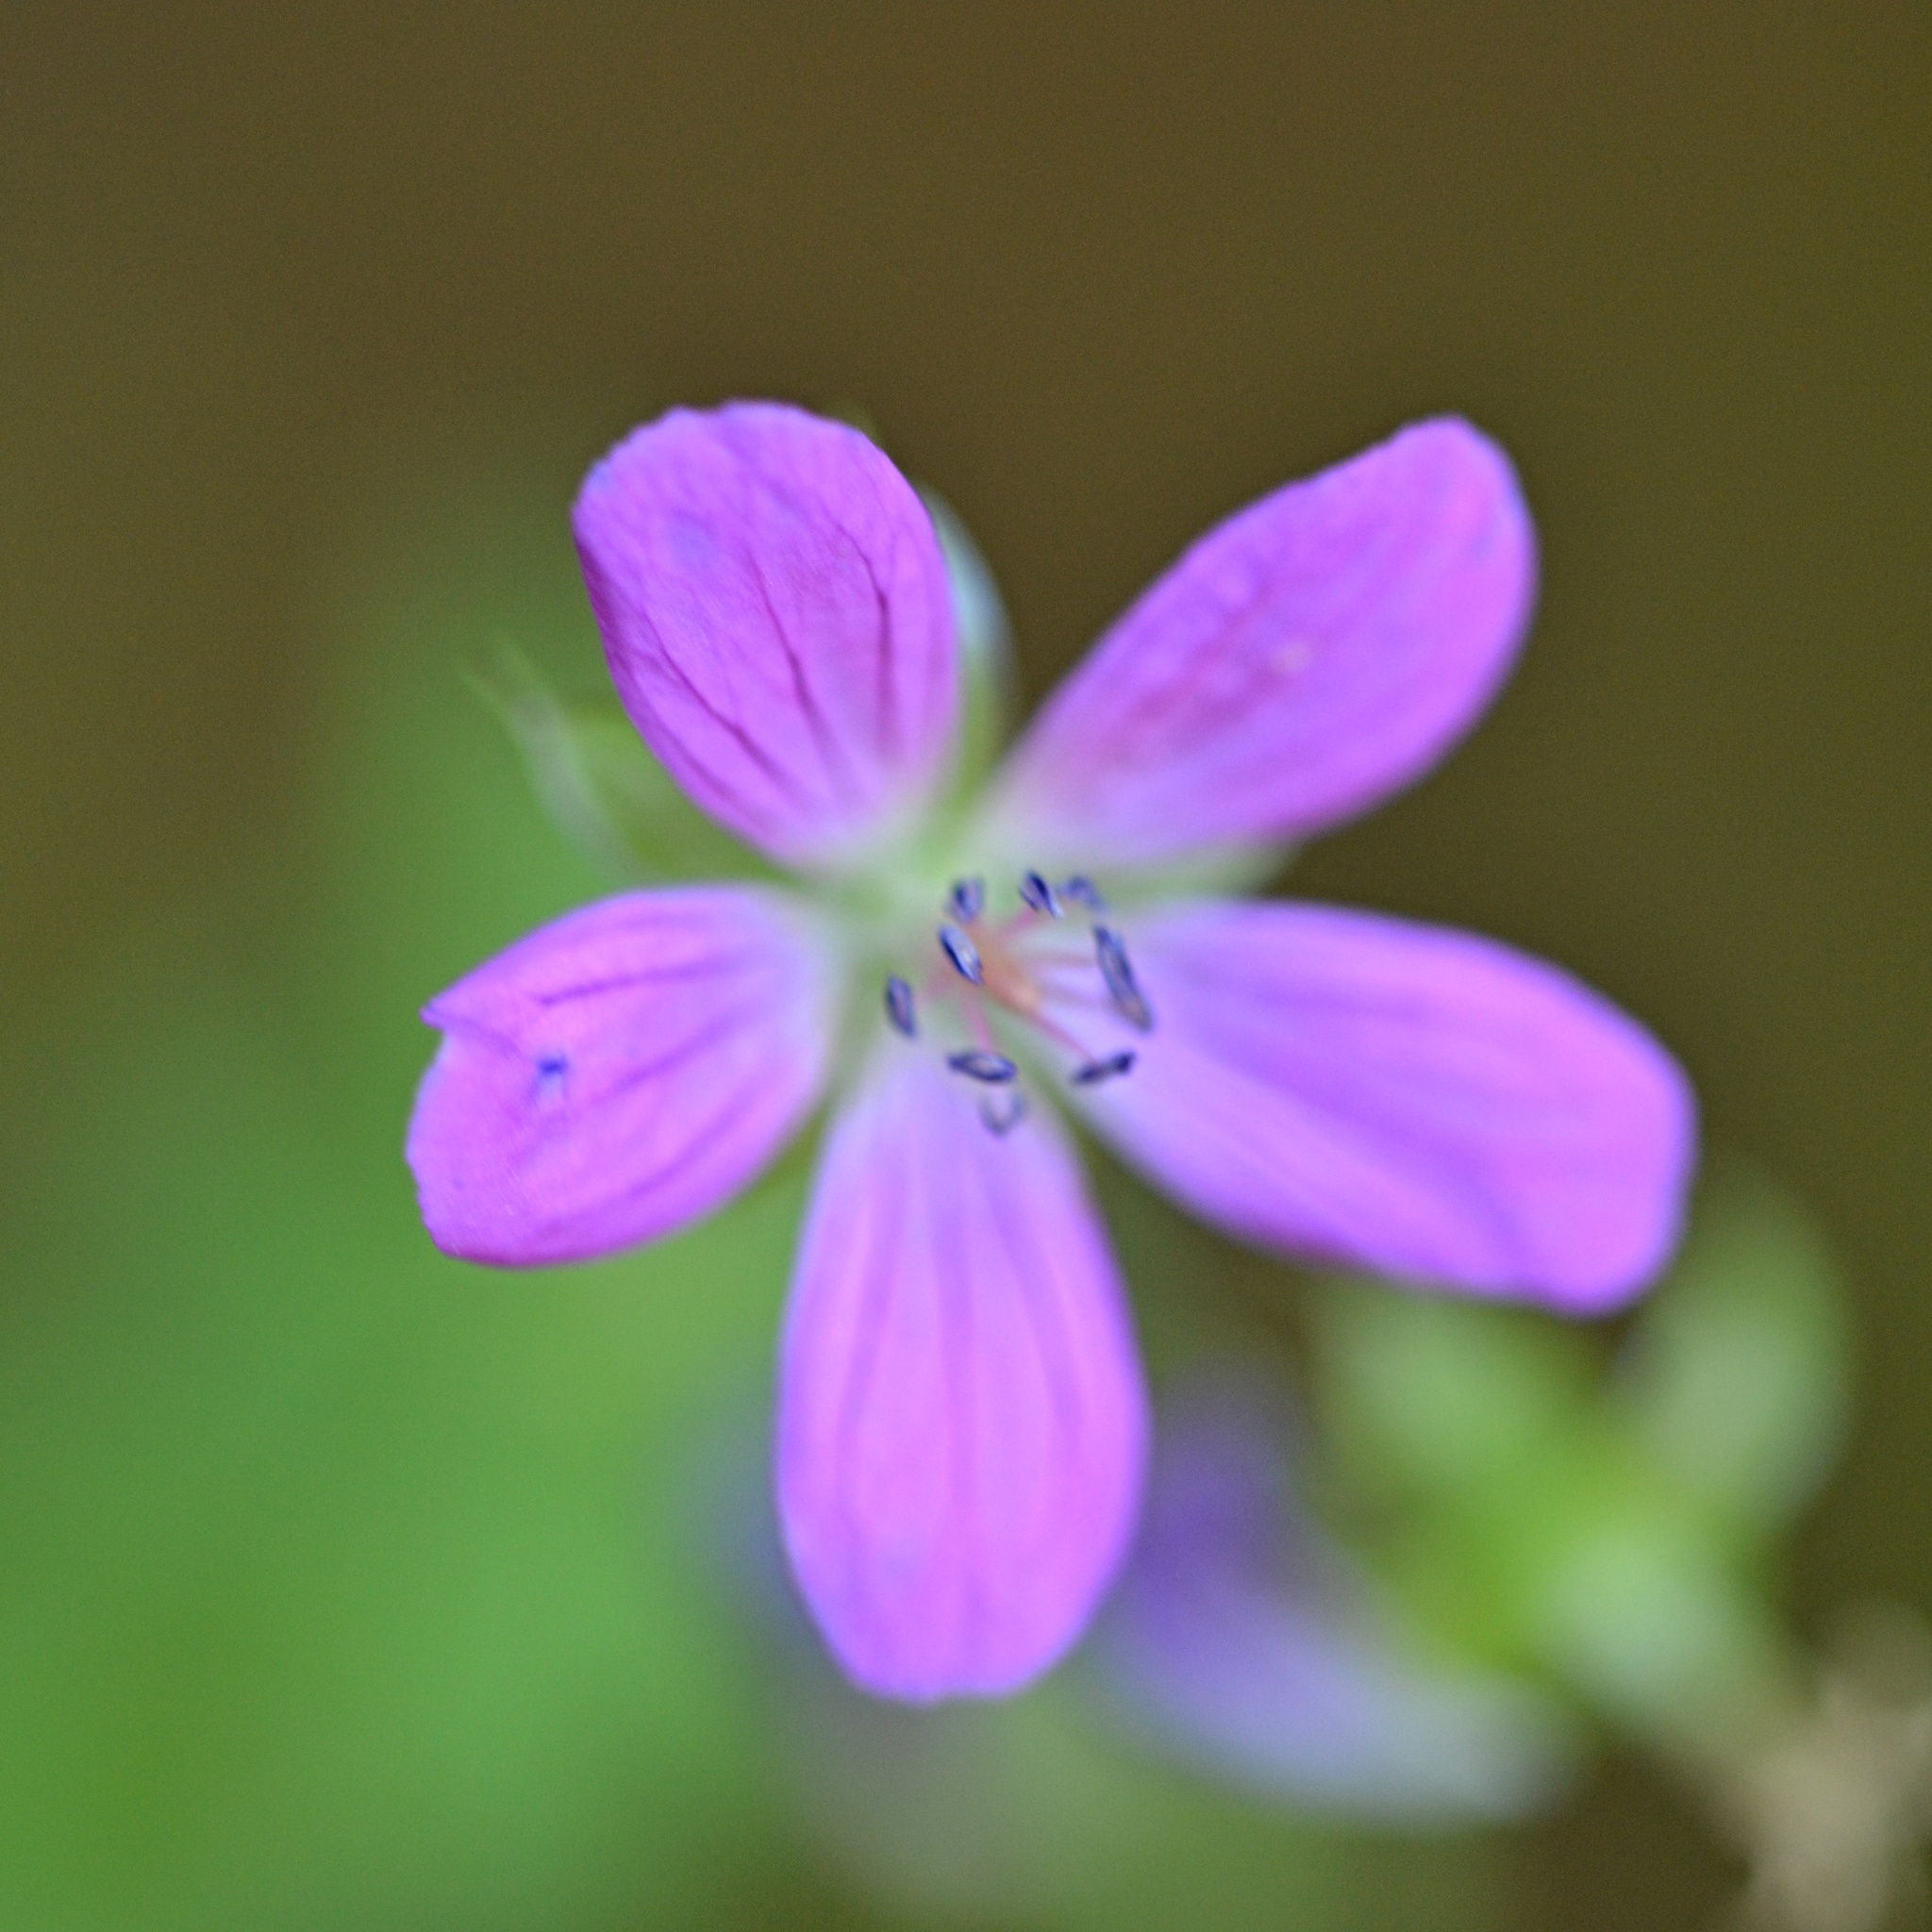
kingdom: Plantae
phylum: Tracheophyta
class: Magnoliopsida
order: Geraniales
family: Geraniaceae
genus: Geranium
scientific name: Geranium palustre
